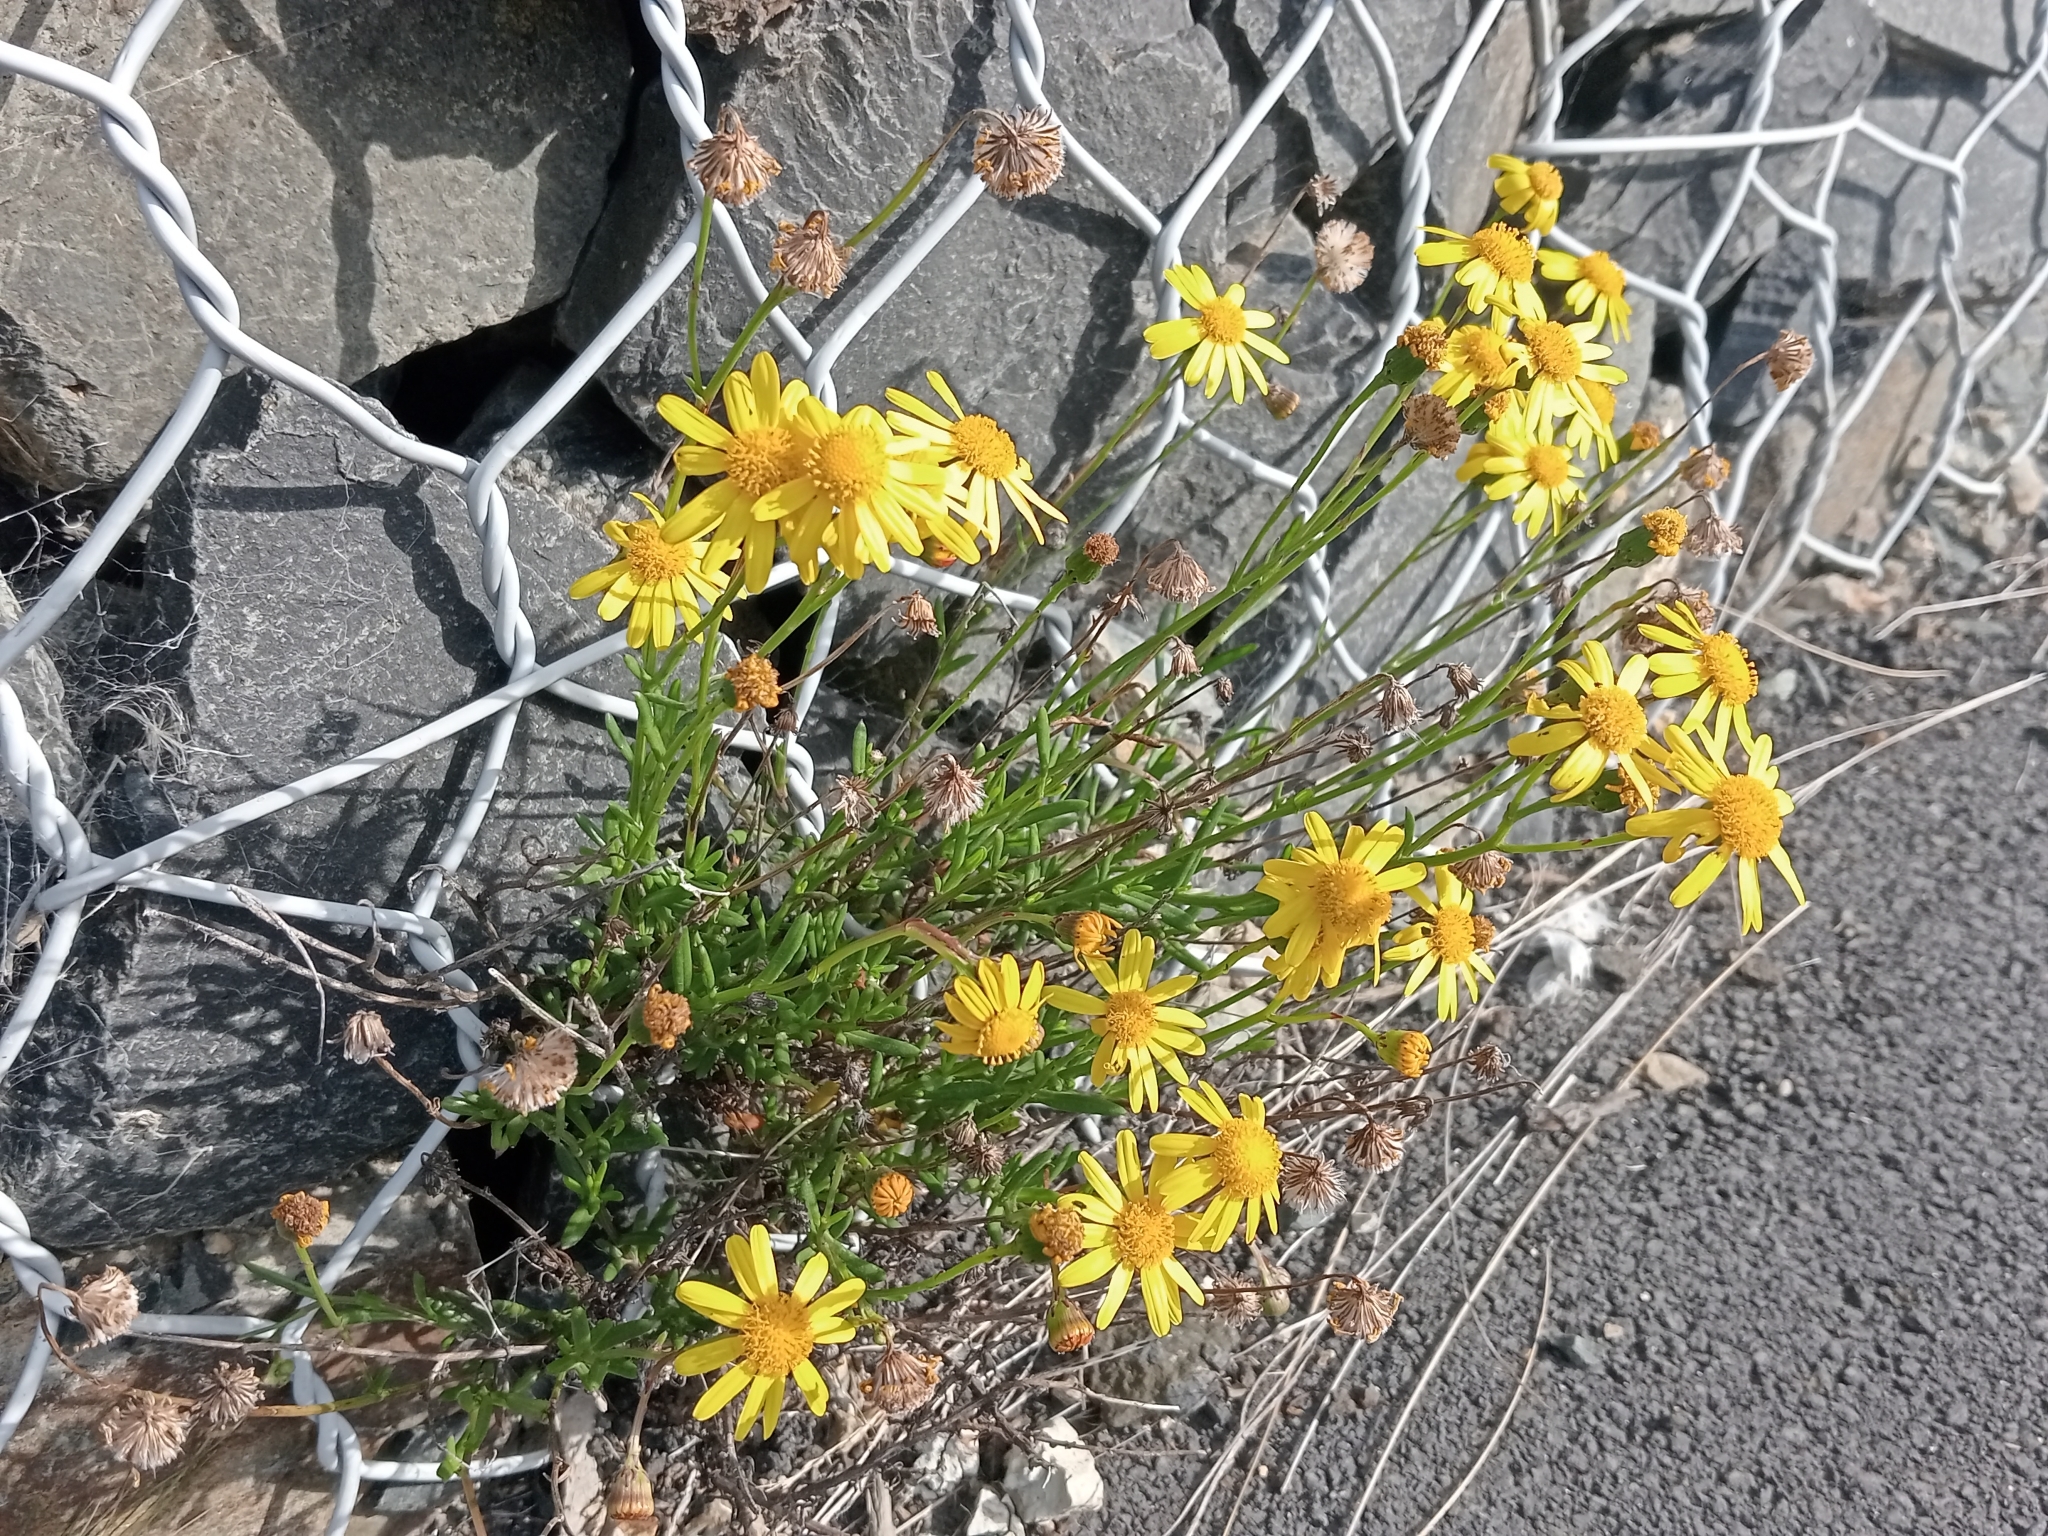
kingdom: Plantae
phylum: Tracheophyta
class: Magnoliopsida
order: Asterales
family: Asteraceae
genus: Senecio
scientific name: Senecio skirrhodon
